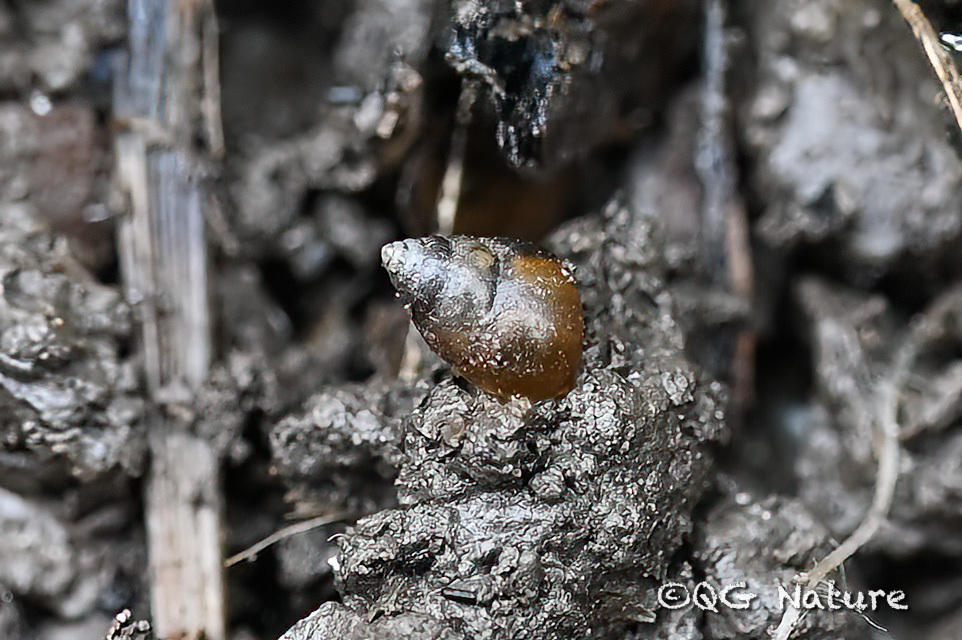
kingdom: Animalia
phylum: Mollusca
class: Gastropoda
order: Littorinimorpha
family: Assimineidae
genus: Solenomphala
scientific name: Solenomphala scalaris
